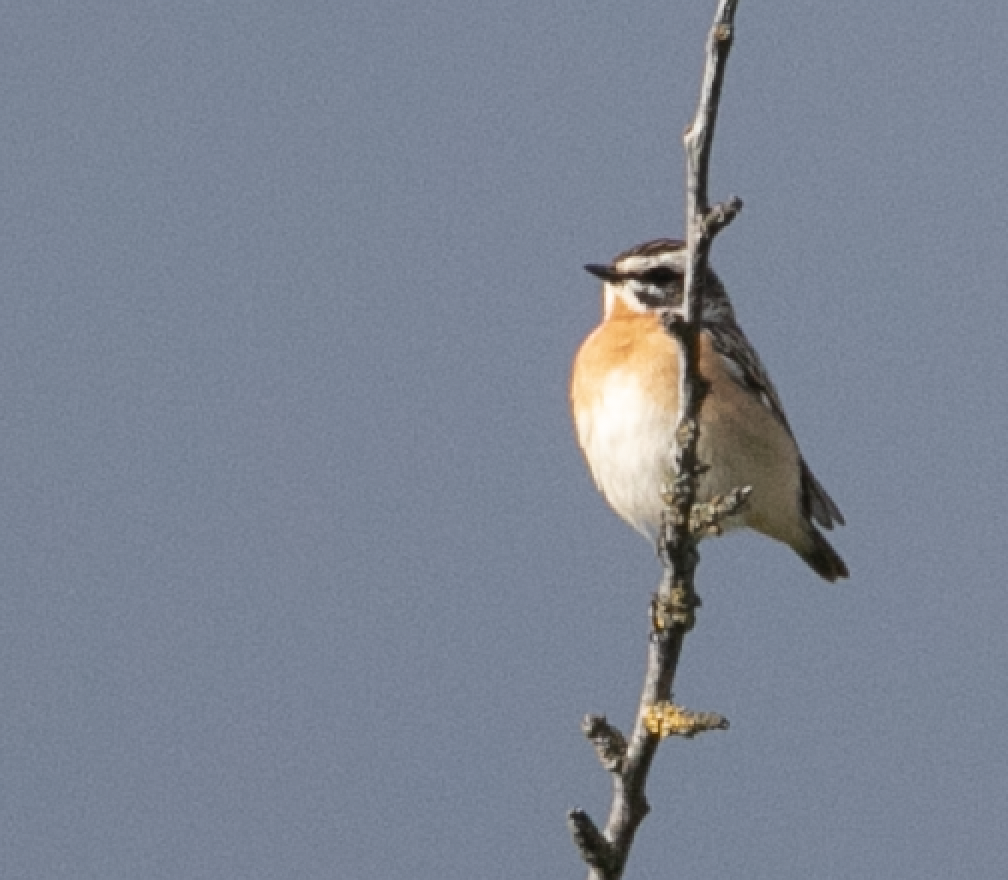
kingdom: Animalia
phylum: Chordata
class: Aves
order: Passeriformes
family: Muscicapidae
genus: Saxicola
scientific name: Saxicola rubetra
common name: Whinchat
